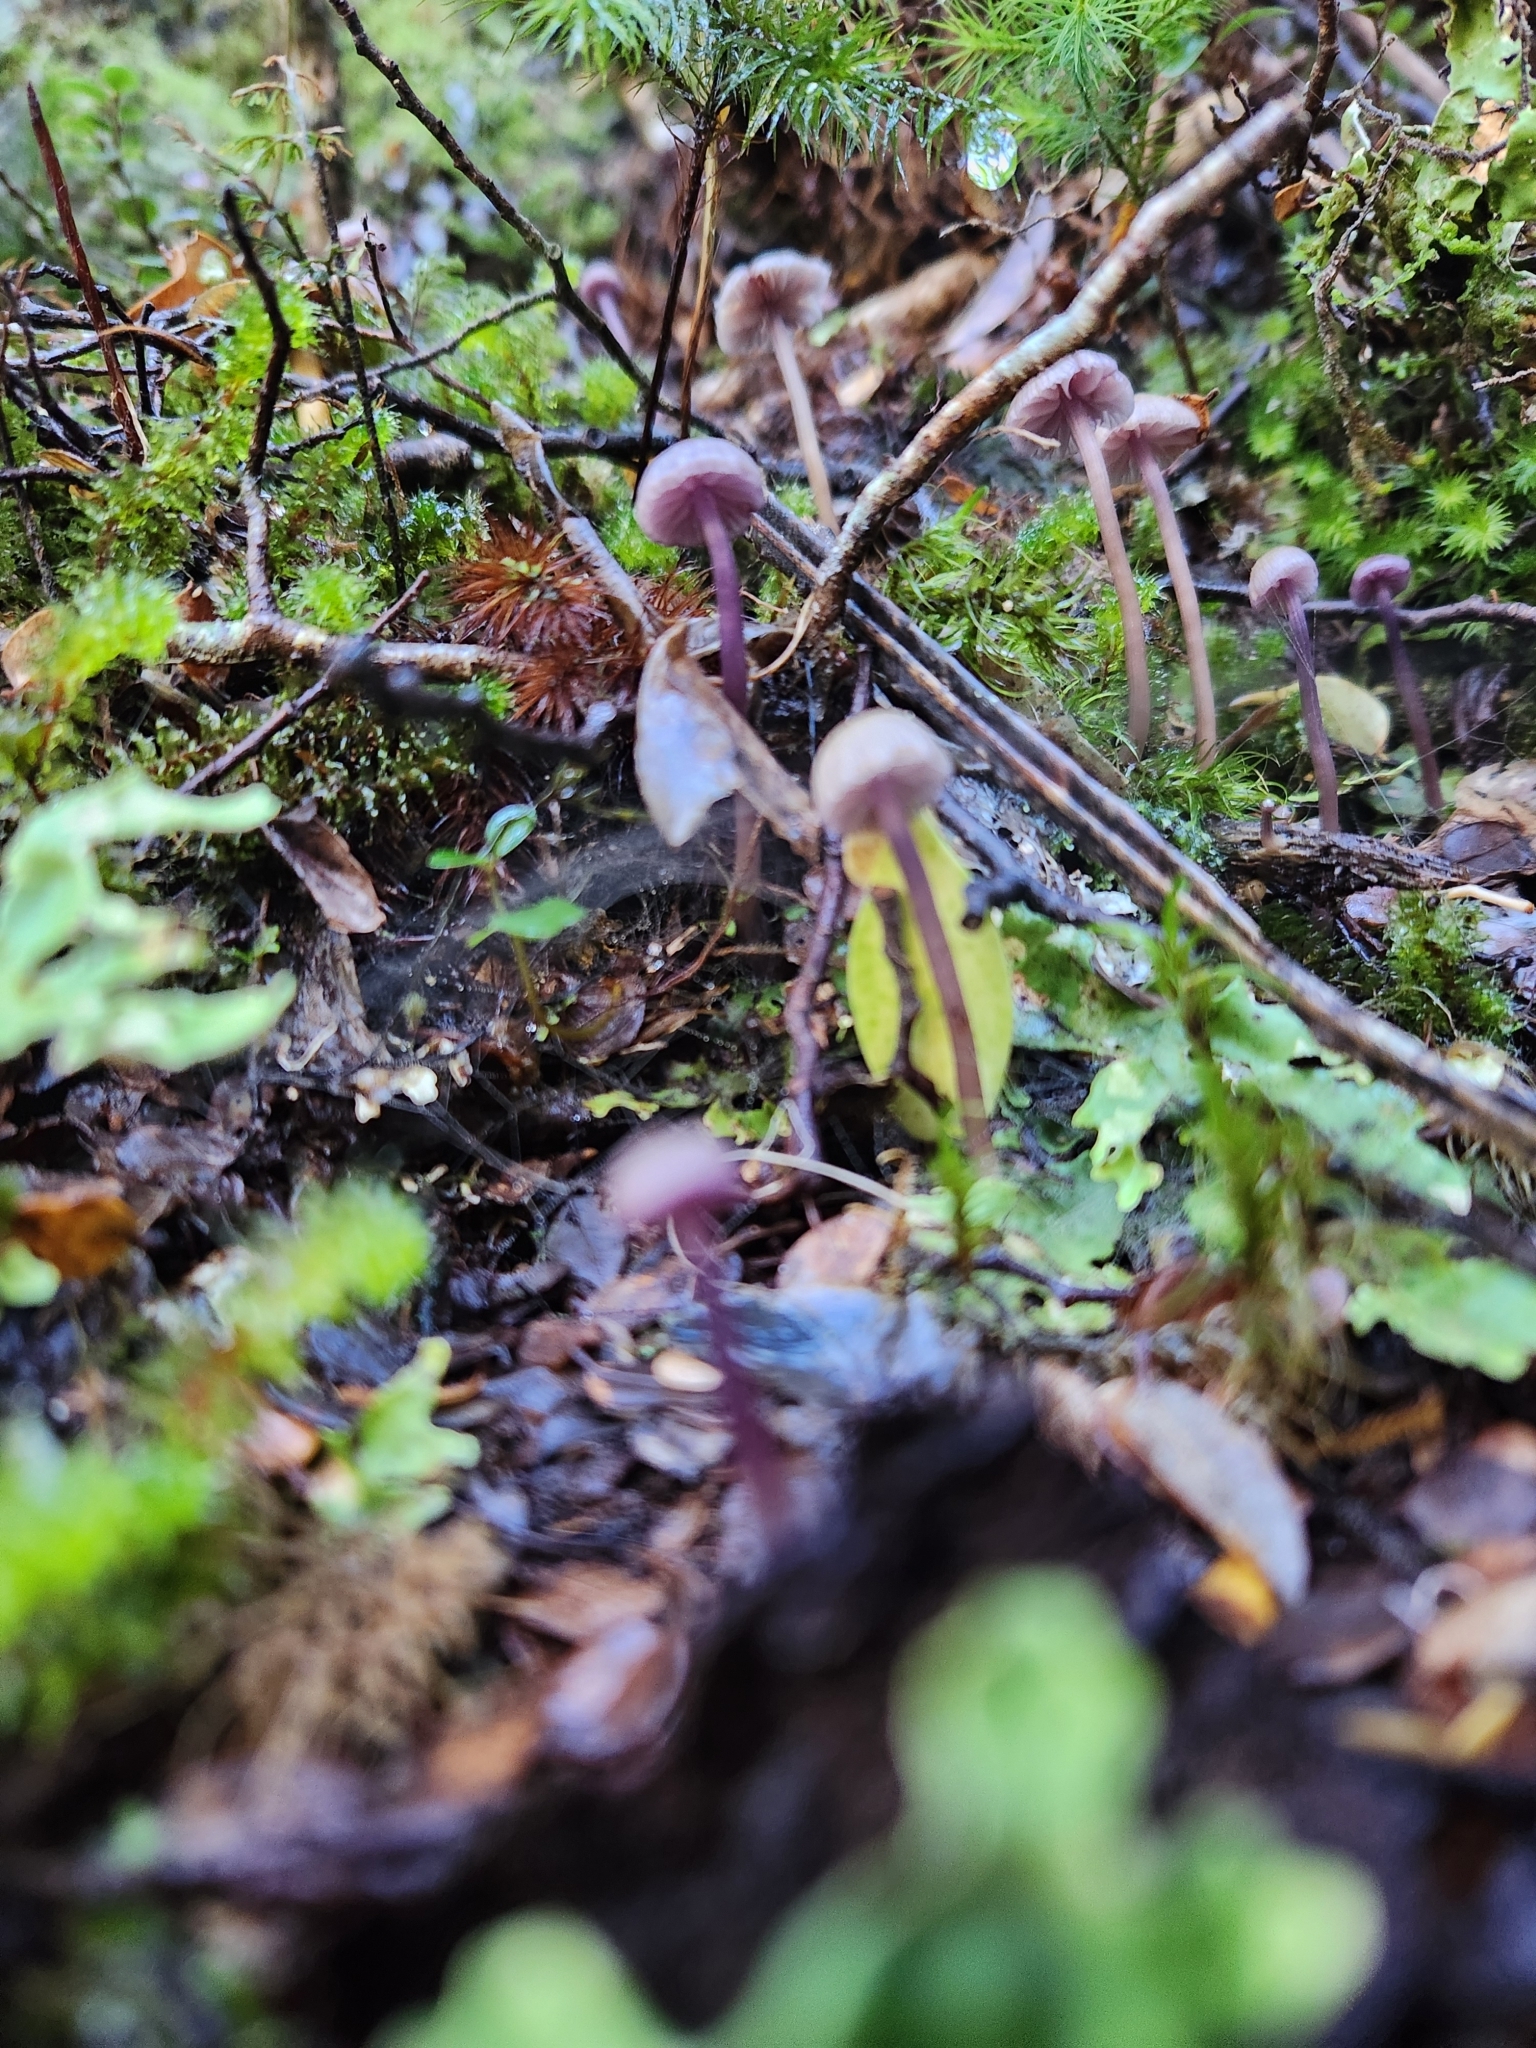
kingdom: Fungi
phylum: Basidiomycota
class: Agaricomycetes
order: Agaricales
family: Hydnangiaceae
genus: Laccaria
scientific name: Laccaria masoniae
